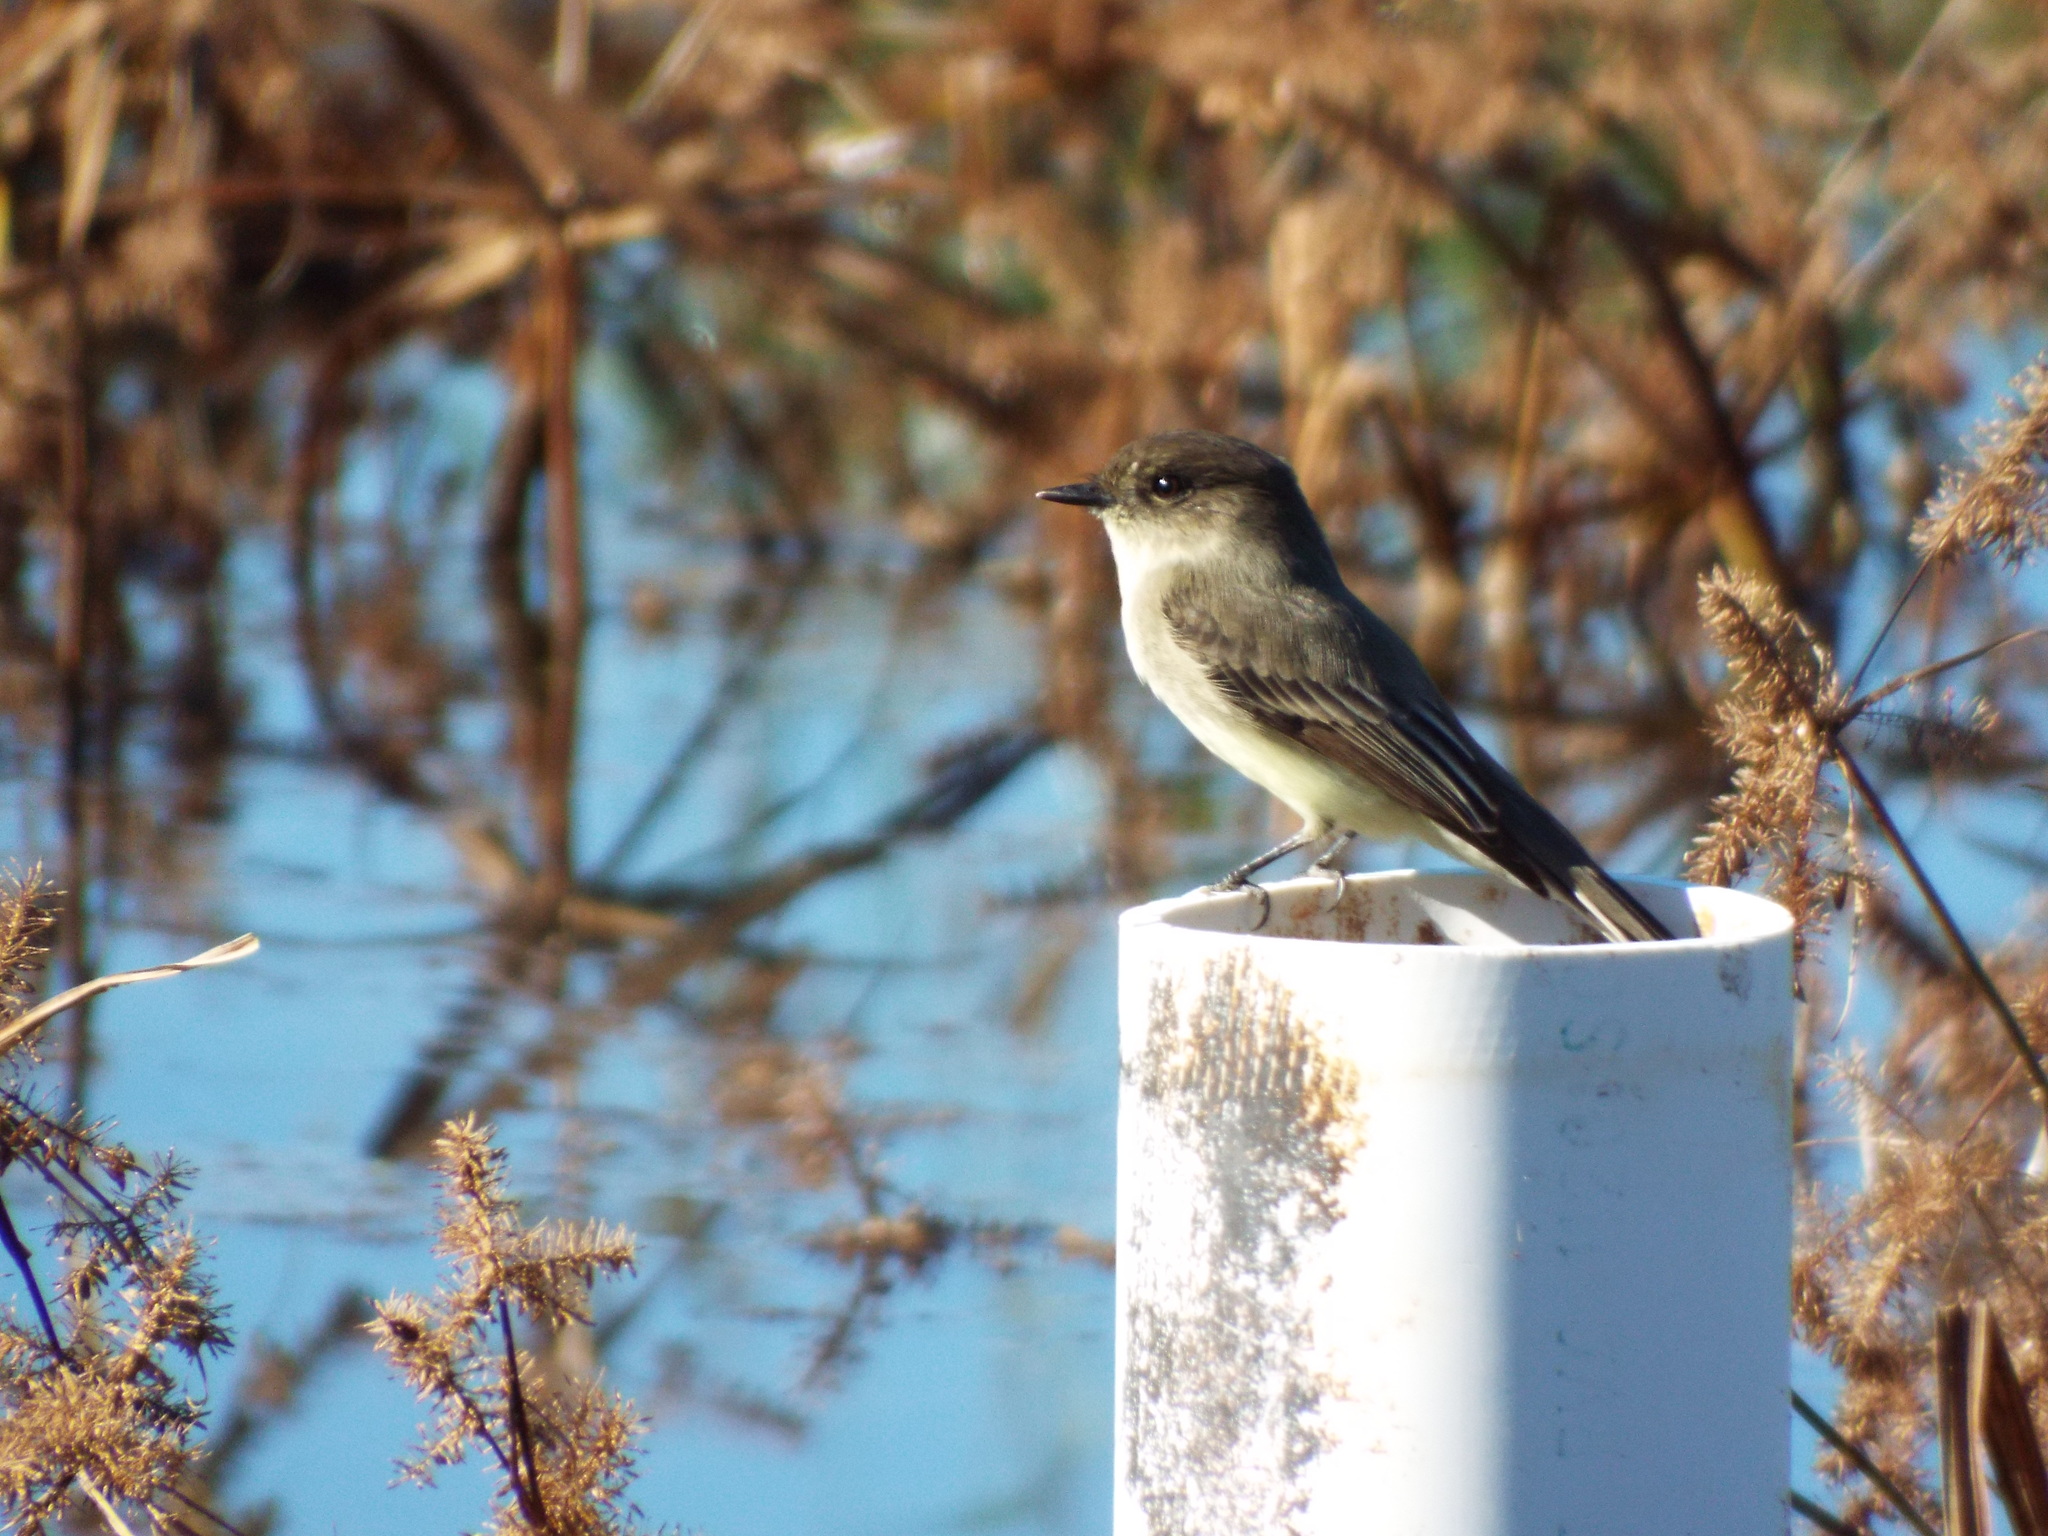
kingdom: Animalia
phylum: Chordata
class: Aves
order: Passeriformes
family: Tyrannidae
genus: Sayornis
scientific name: Sayornis phoebe
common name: Eastern phoebe
